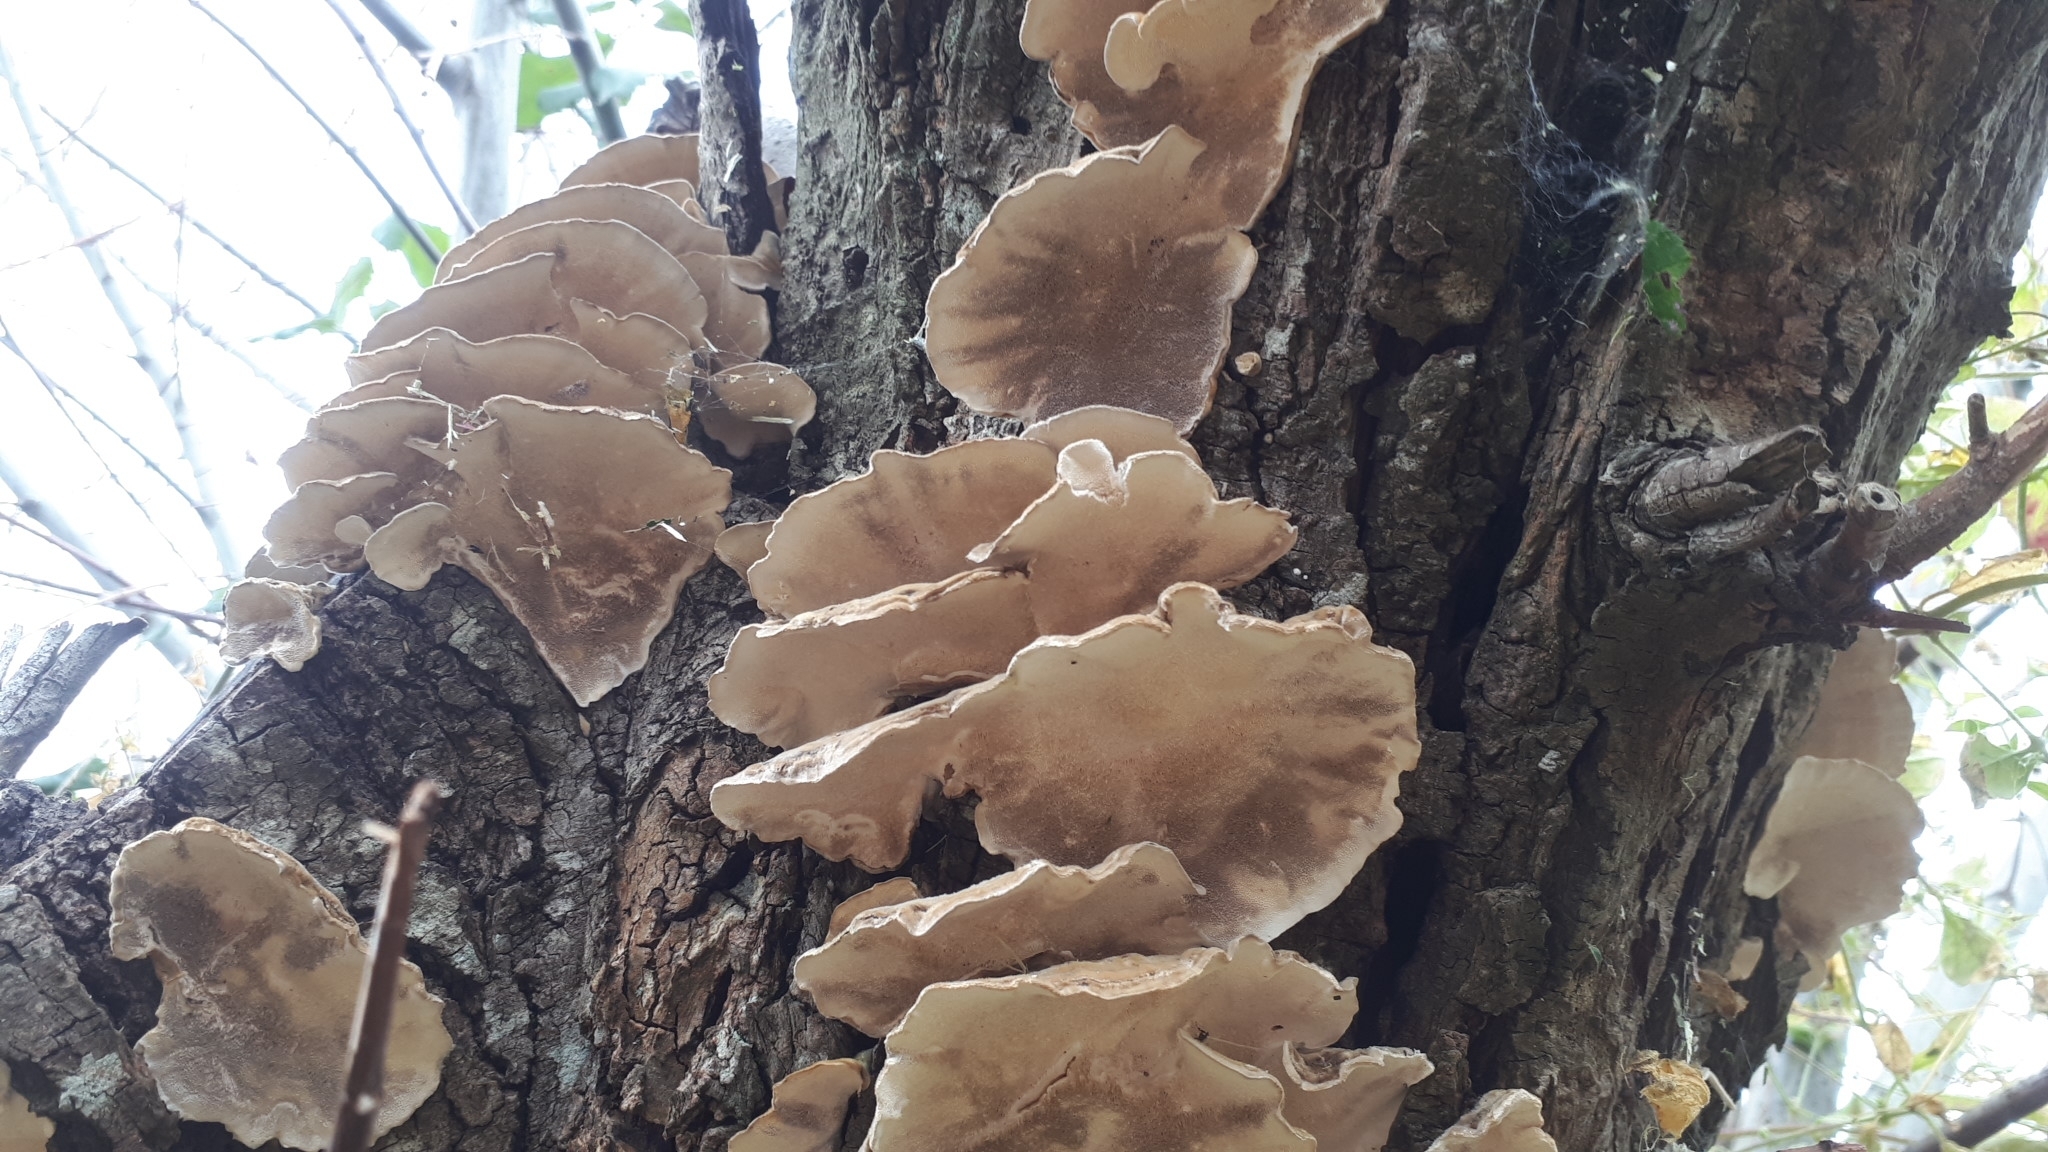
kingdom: Fungi
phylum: Basidiomycota
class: Agaricomycetes
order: Polyporales
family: Polyporaceae
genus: Trametes
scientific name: Trametes versicolor
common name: Turkeytail
